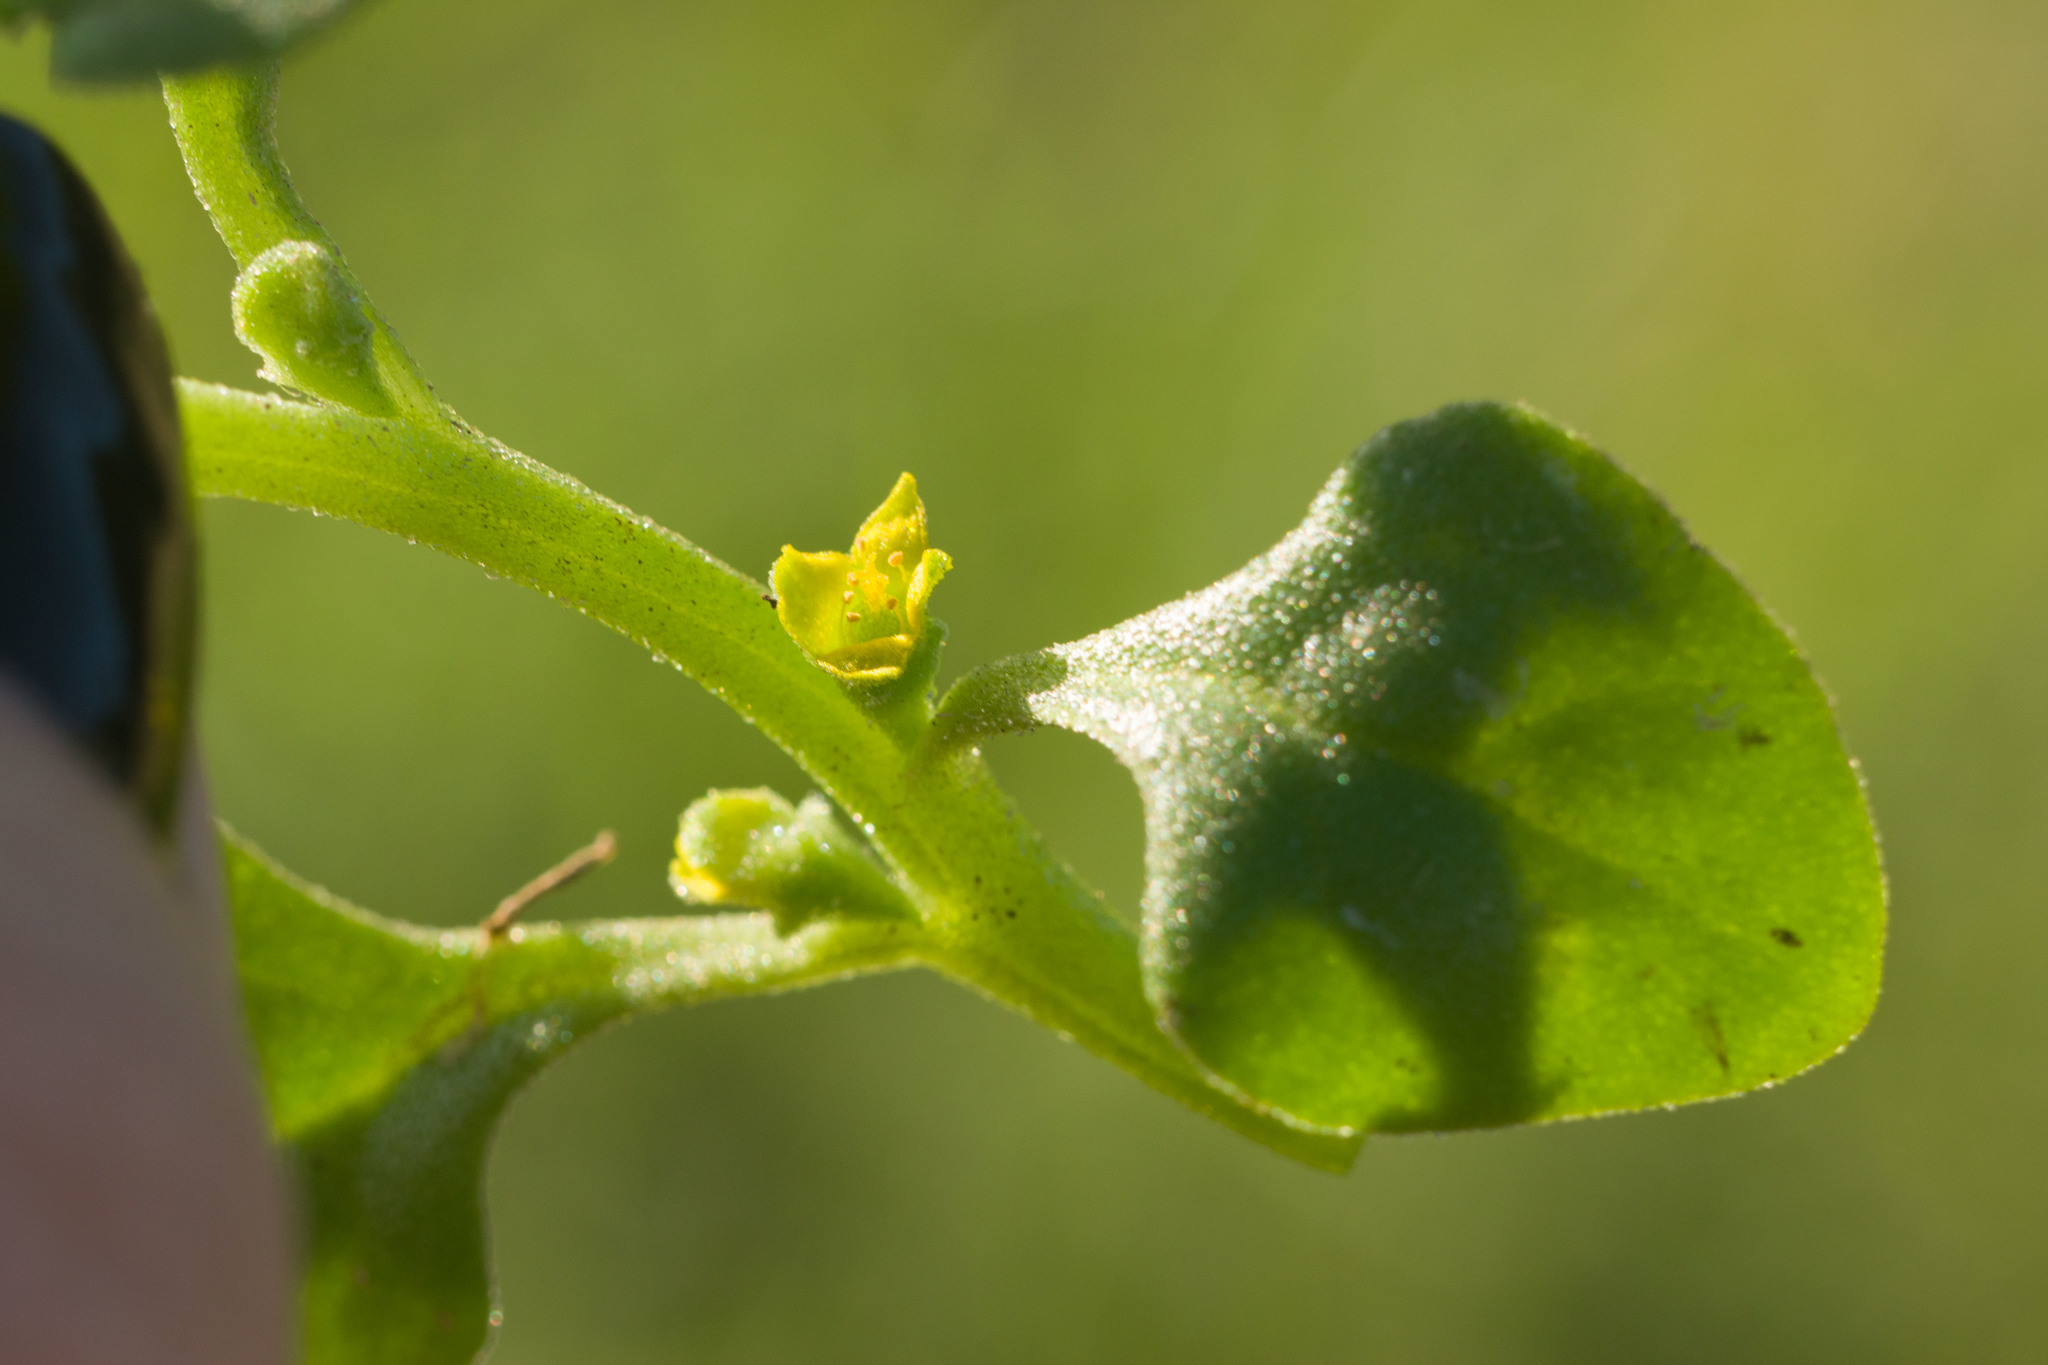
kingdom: Plantae
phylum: Tracheophyta
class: Magnoliopsida
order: Caryophyllales
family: Aizoaceae
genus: Tetragonia
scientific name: Tetragonia tetragonoides
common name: New zealand-spinach
